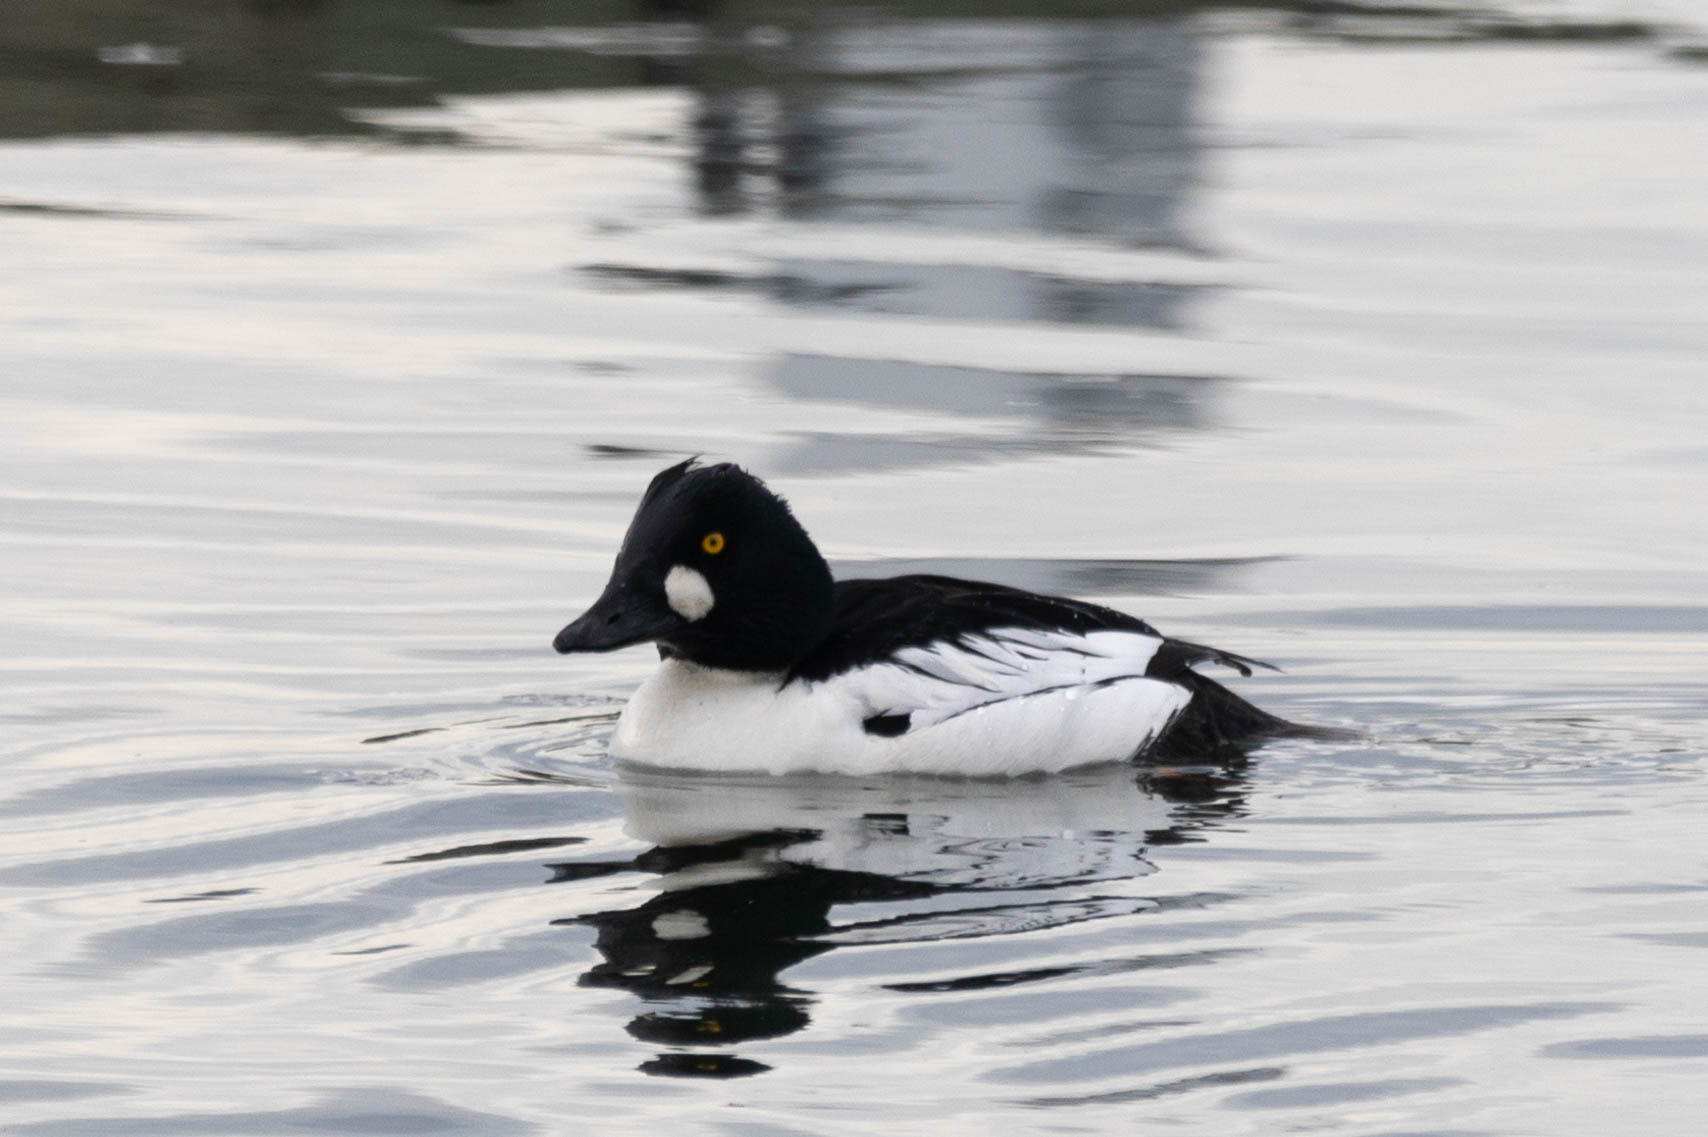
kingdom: Animalia
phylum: Chordata
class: Aves
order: Anseriformes
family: Anatidae
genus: Bucephala
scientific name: Bucephala clangula
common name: Common goldeneye
